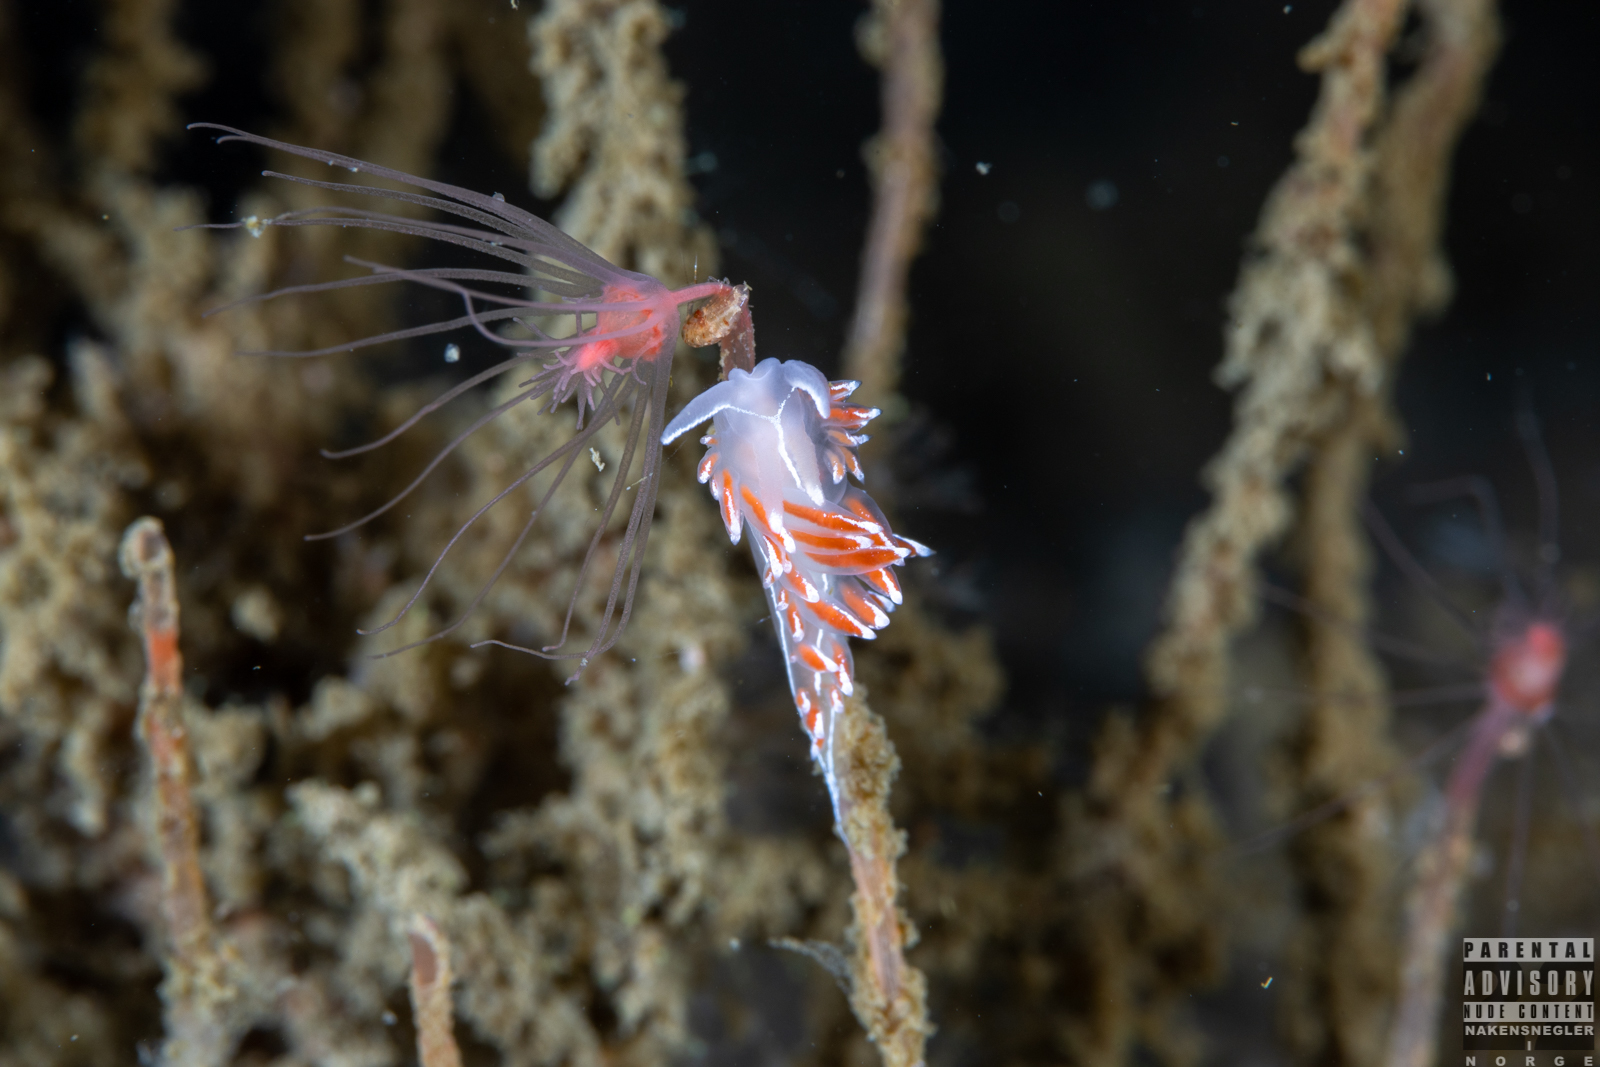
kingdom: Animalia
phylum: Mollusca
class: Gastropoda
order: Nudibranchia
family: Coryphellidae
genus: Coryphella
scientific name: Coryphella lineata
